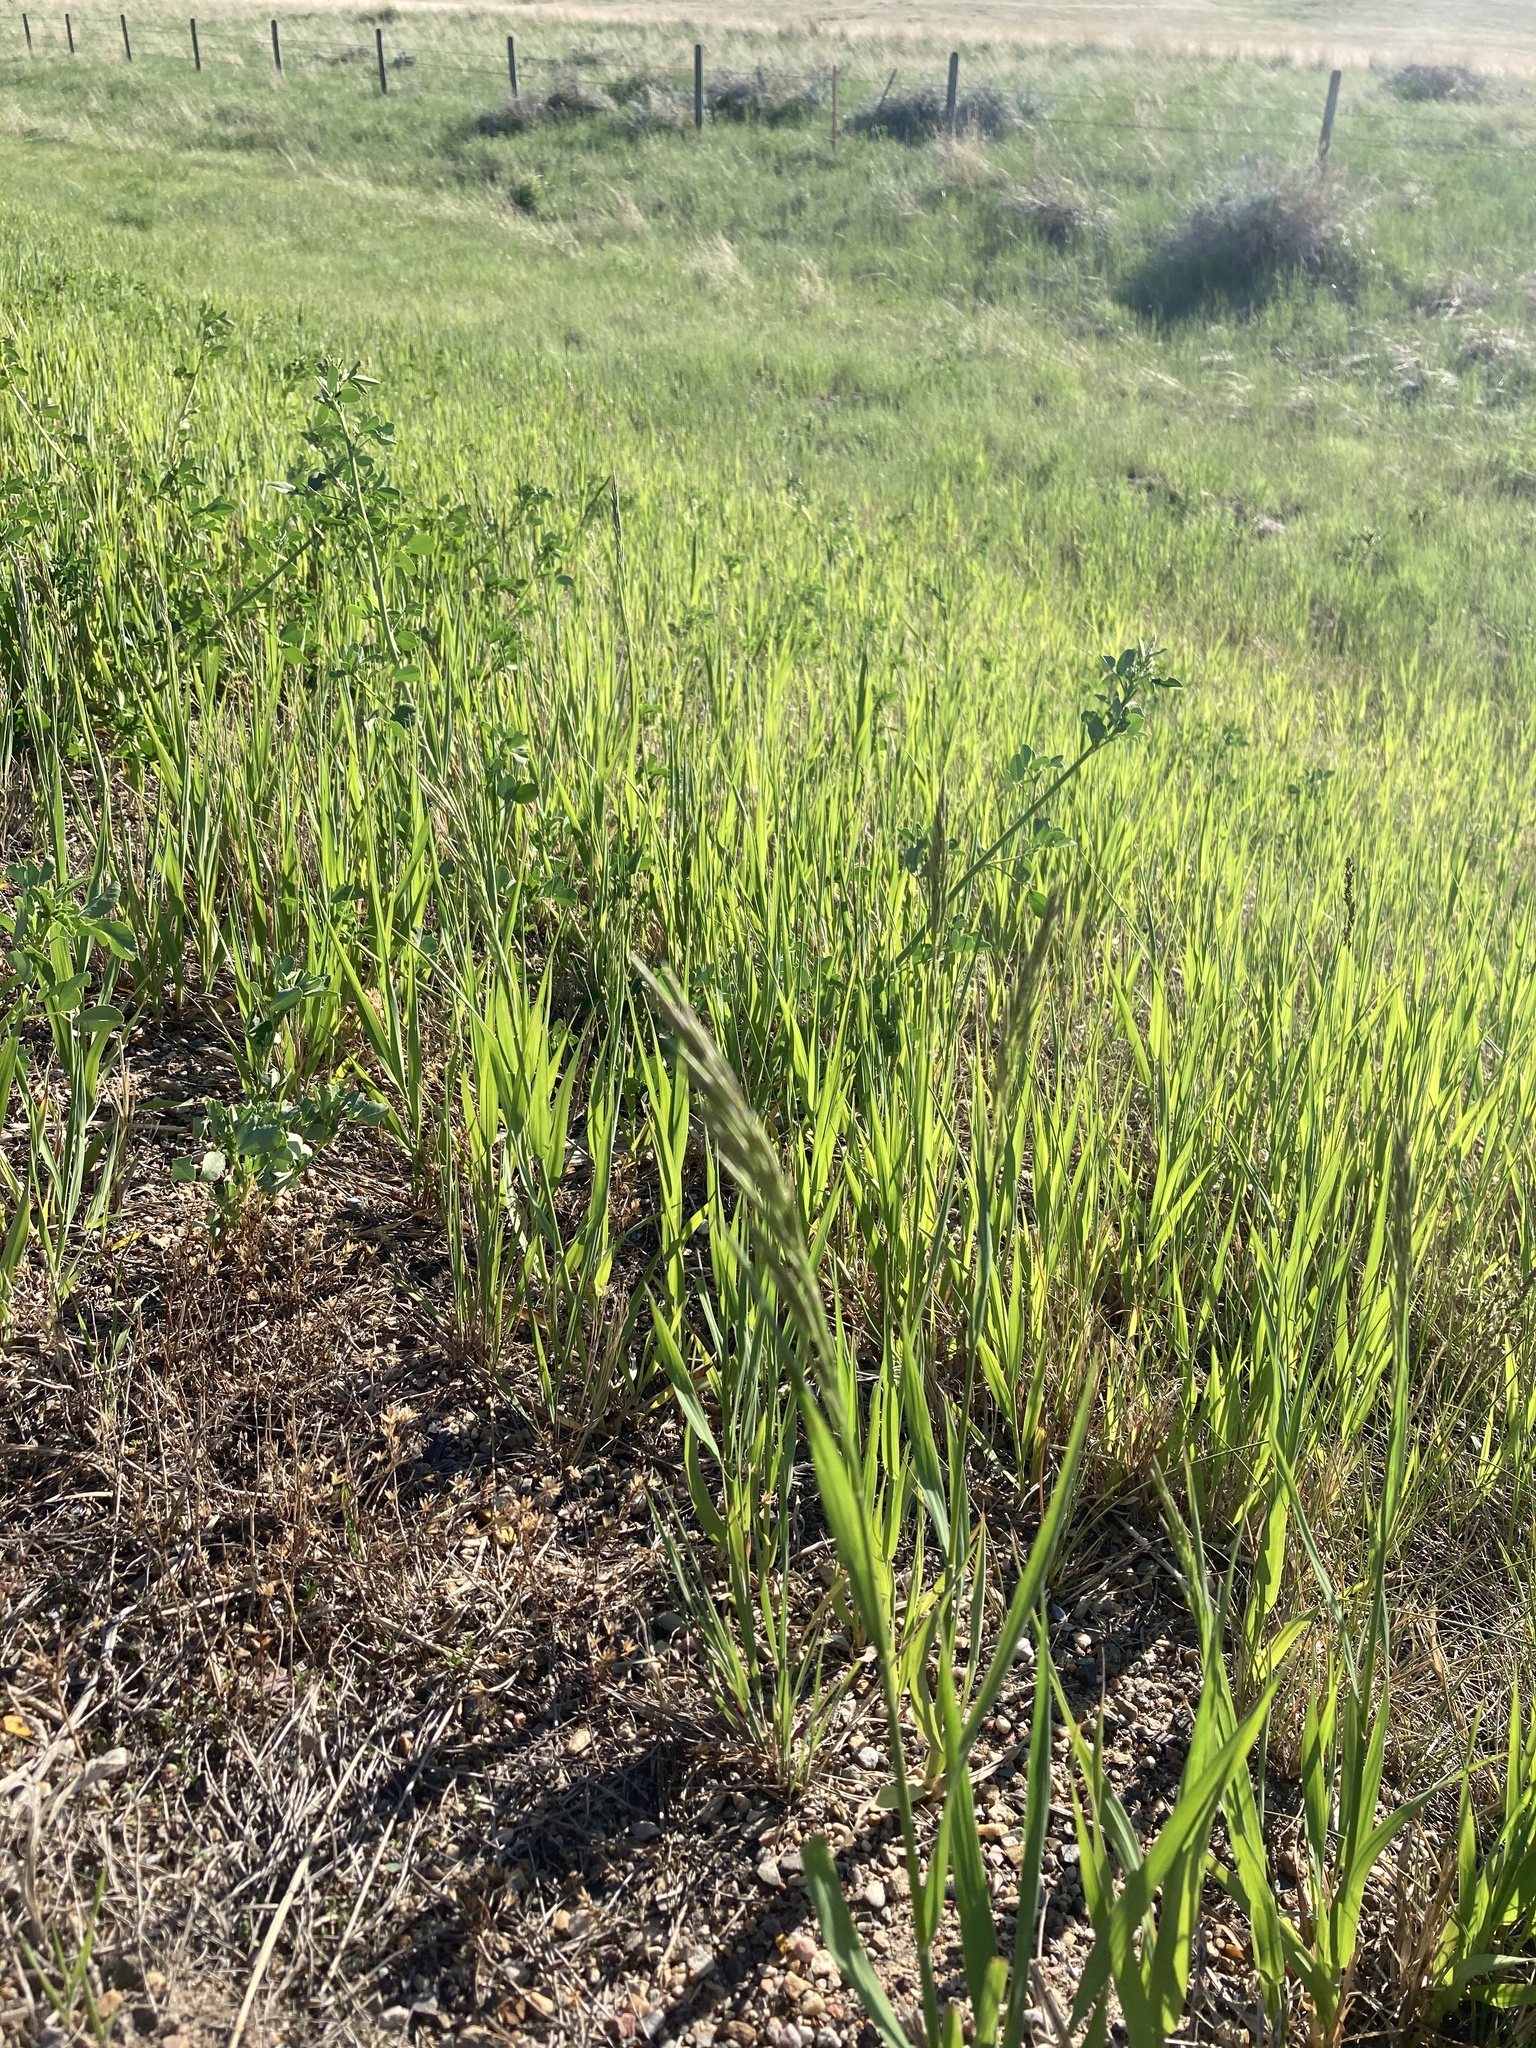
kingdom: Plantae
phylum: Tracheophyta
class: Liliopsida
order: Poales
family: Poaceae
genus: Bromus
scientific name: Bromus inermis
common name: Smooth brome
